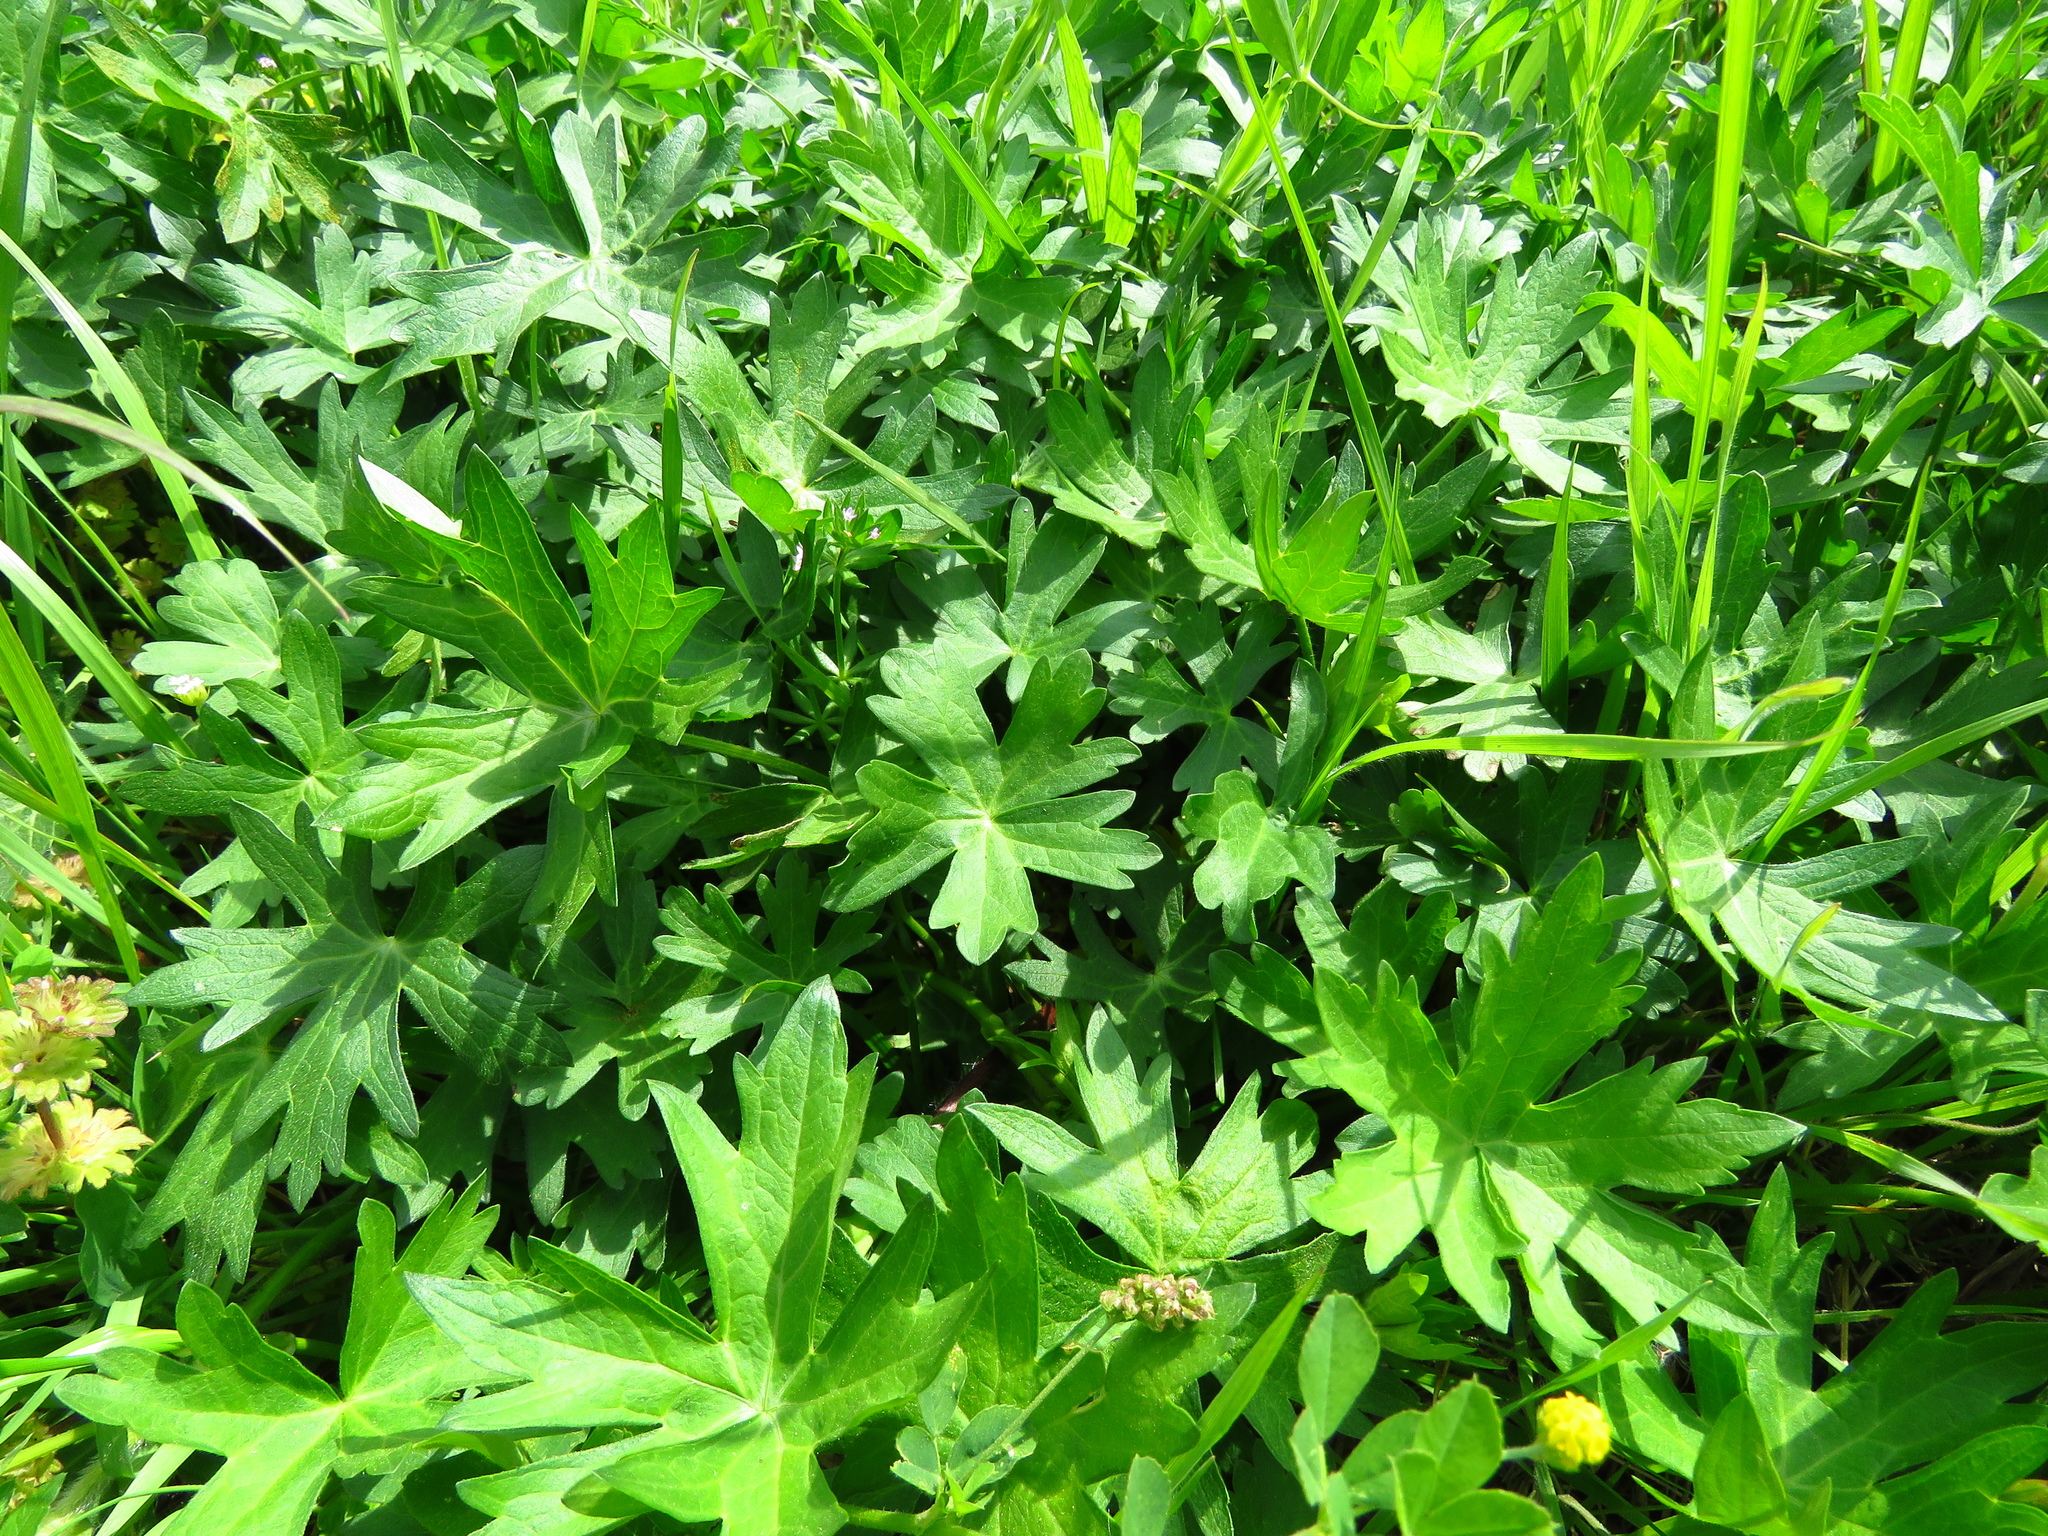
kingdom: Plantae
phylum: Tracheophyta
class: Magnoliopsida
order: Malvales
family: Malvaceae
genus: Callirhoe
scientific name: Callirhoe involucrata
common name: Purple poppy-mallow
